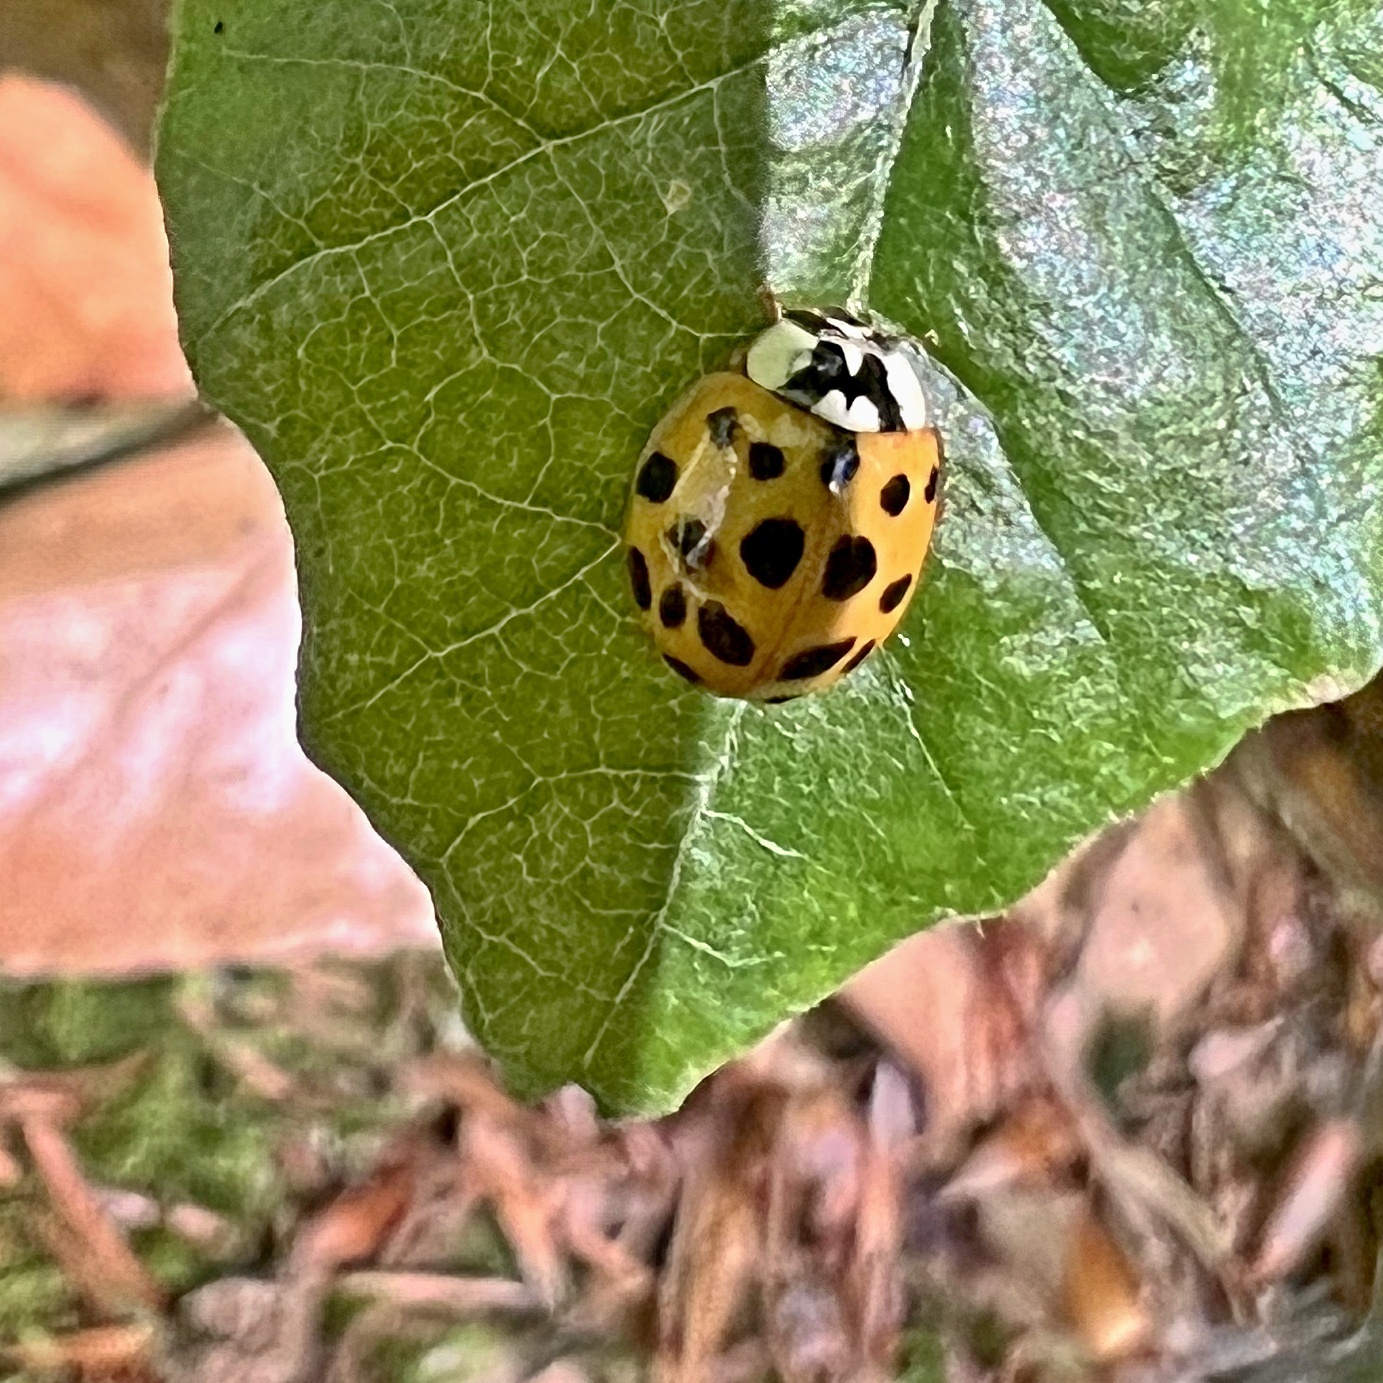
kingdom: Animalia
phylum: Arthropoda
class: Insecta
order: Coleoptera
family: Coccinellidae
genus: Harmonia
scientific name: Harmonia axyridis
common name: Harlequin ladybird
